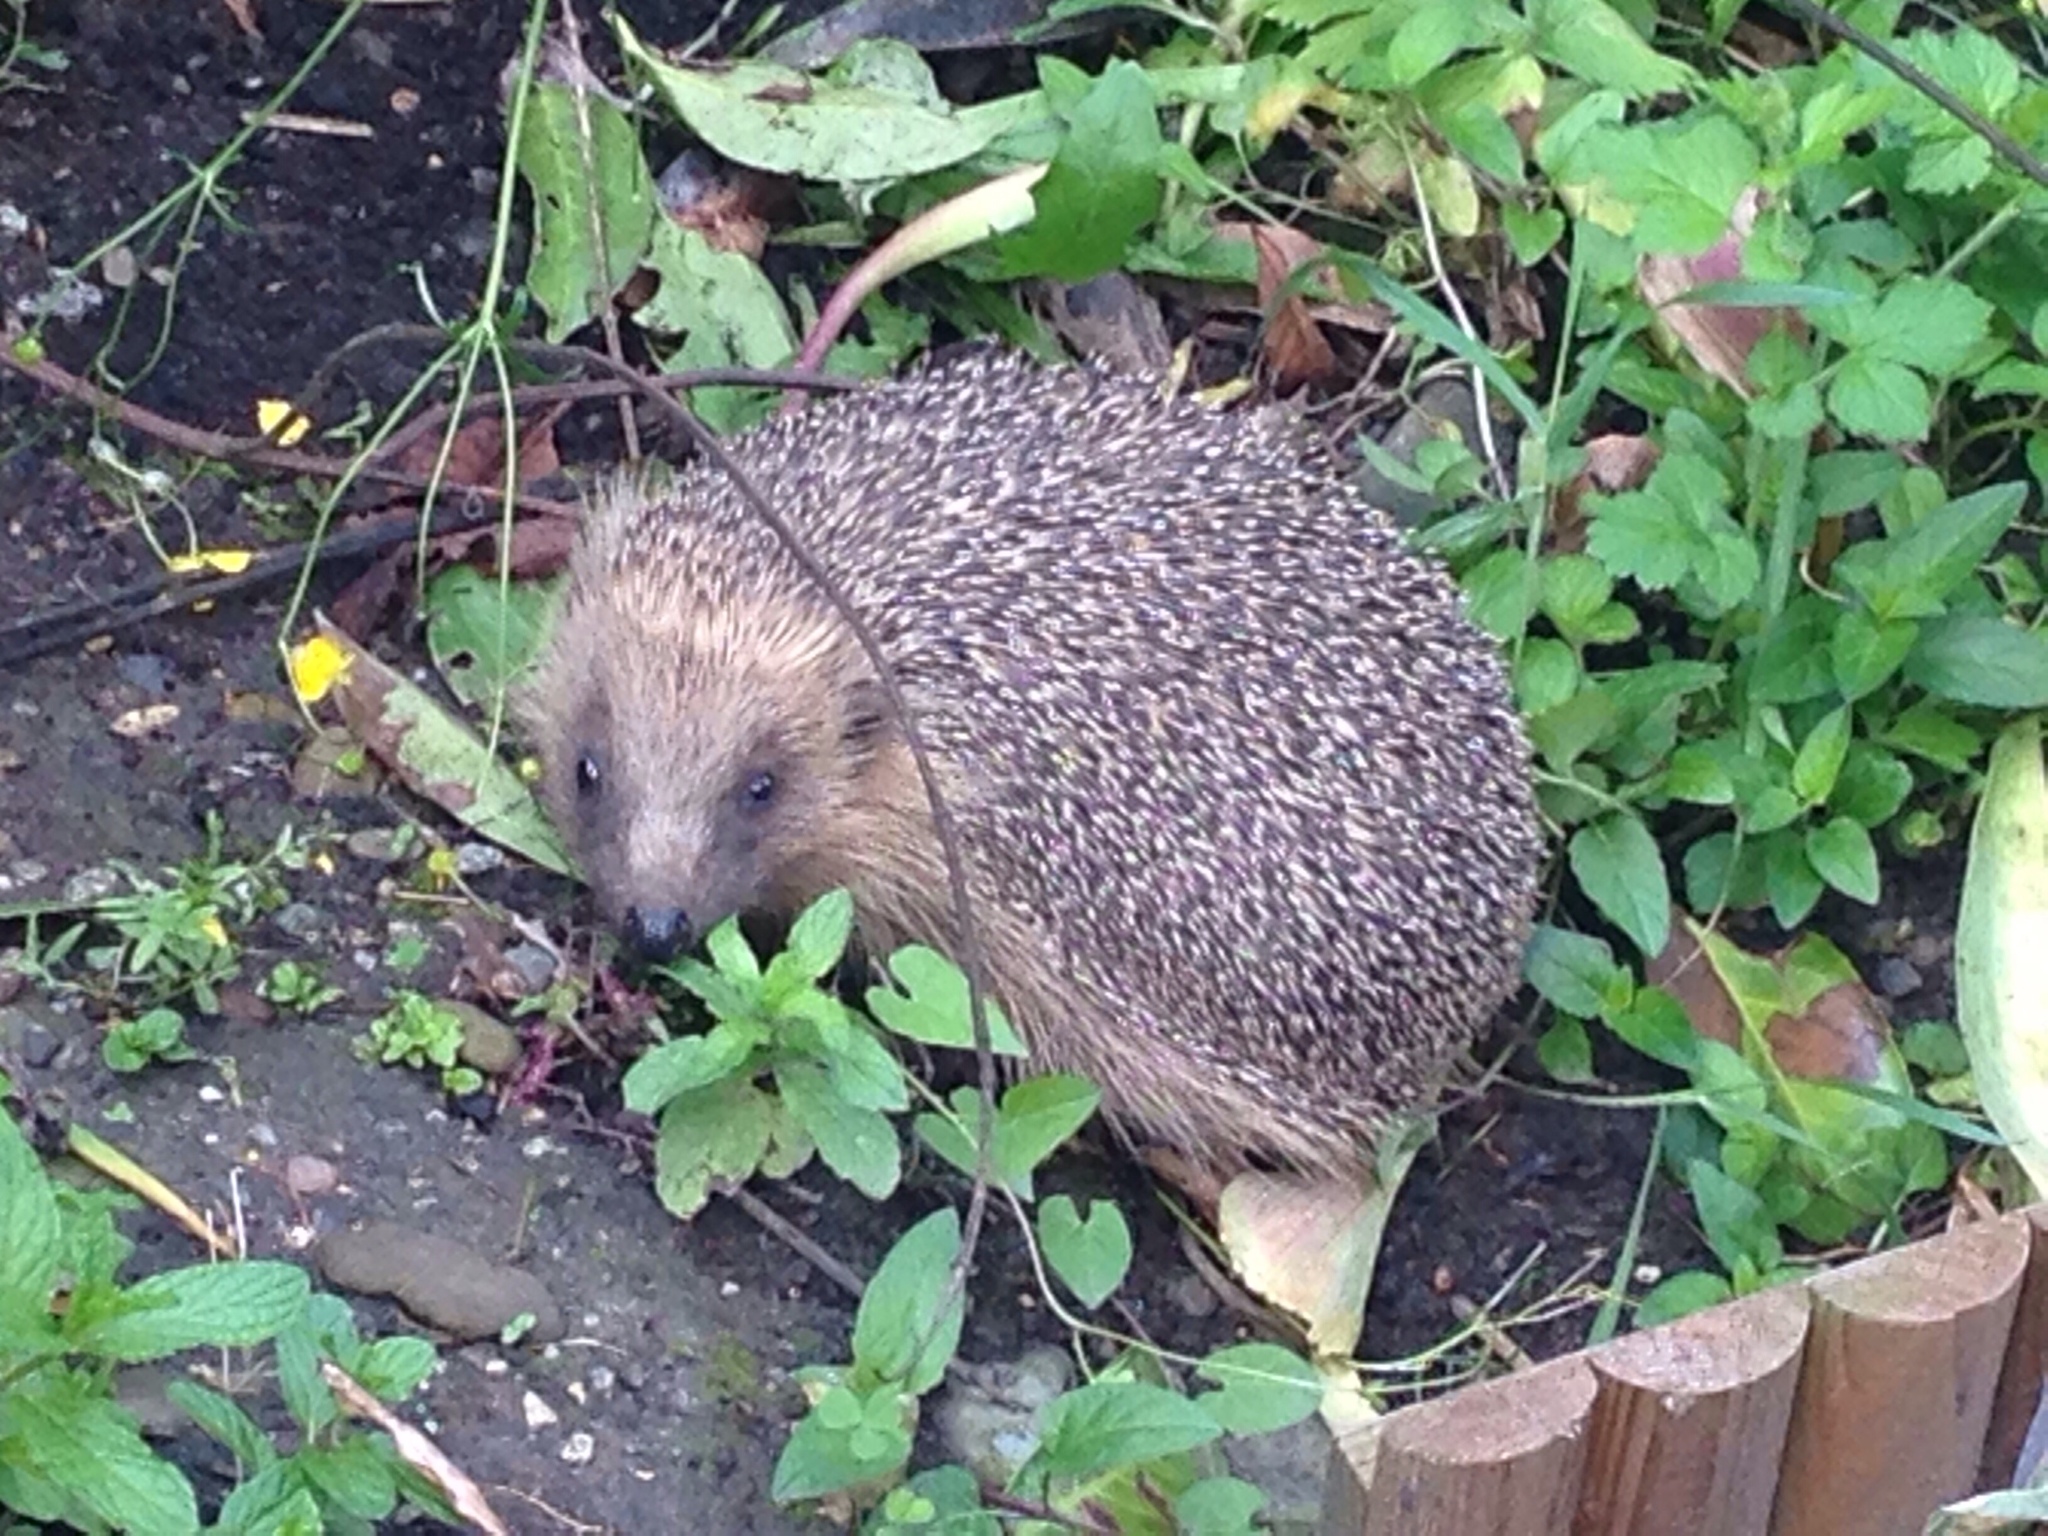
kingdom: Animalia
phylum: Chordata
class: Mammalia
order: Erinaceomorpha
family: Erinaceidae
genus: Erinaceus
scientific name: Erinaceus europaeus
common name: West european hedgehog
